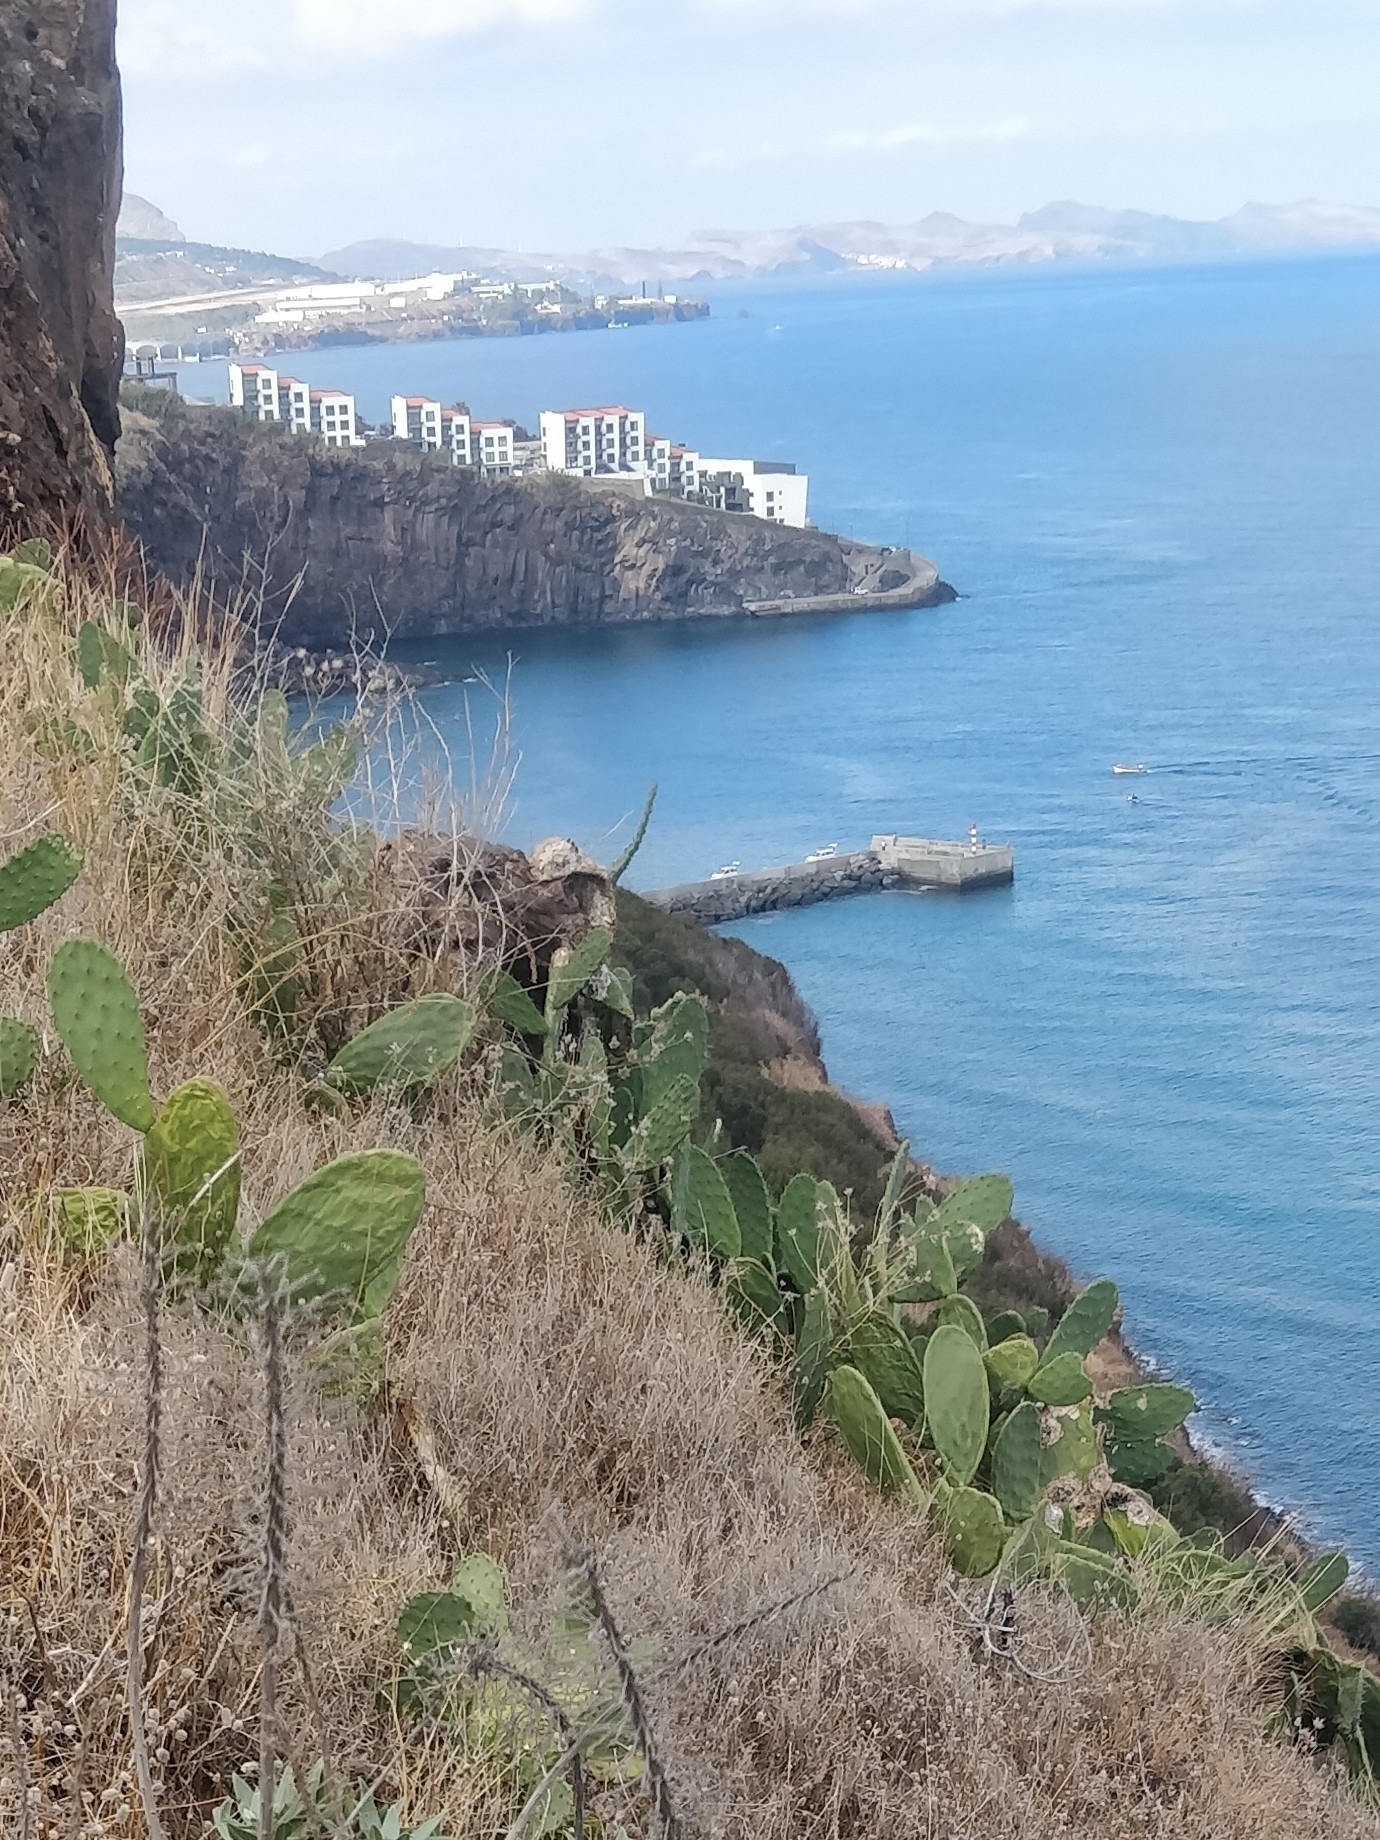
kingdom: Plantae
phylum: Tracheophyta
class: Magnoliopsida
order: Caryophyllales
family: Cactaceae
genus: Opuntia
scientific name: Opuntia ficus-indica
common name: Barbary fig
